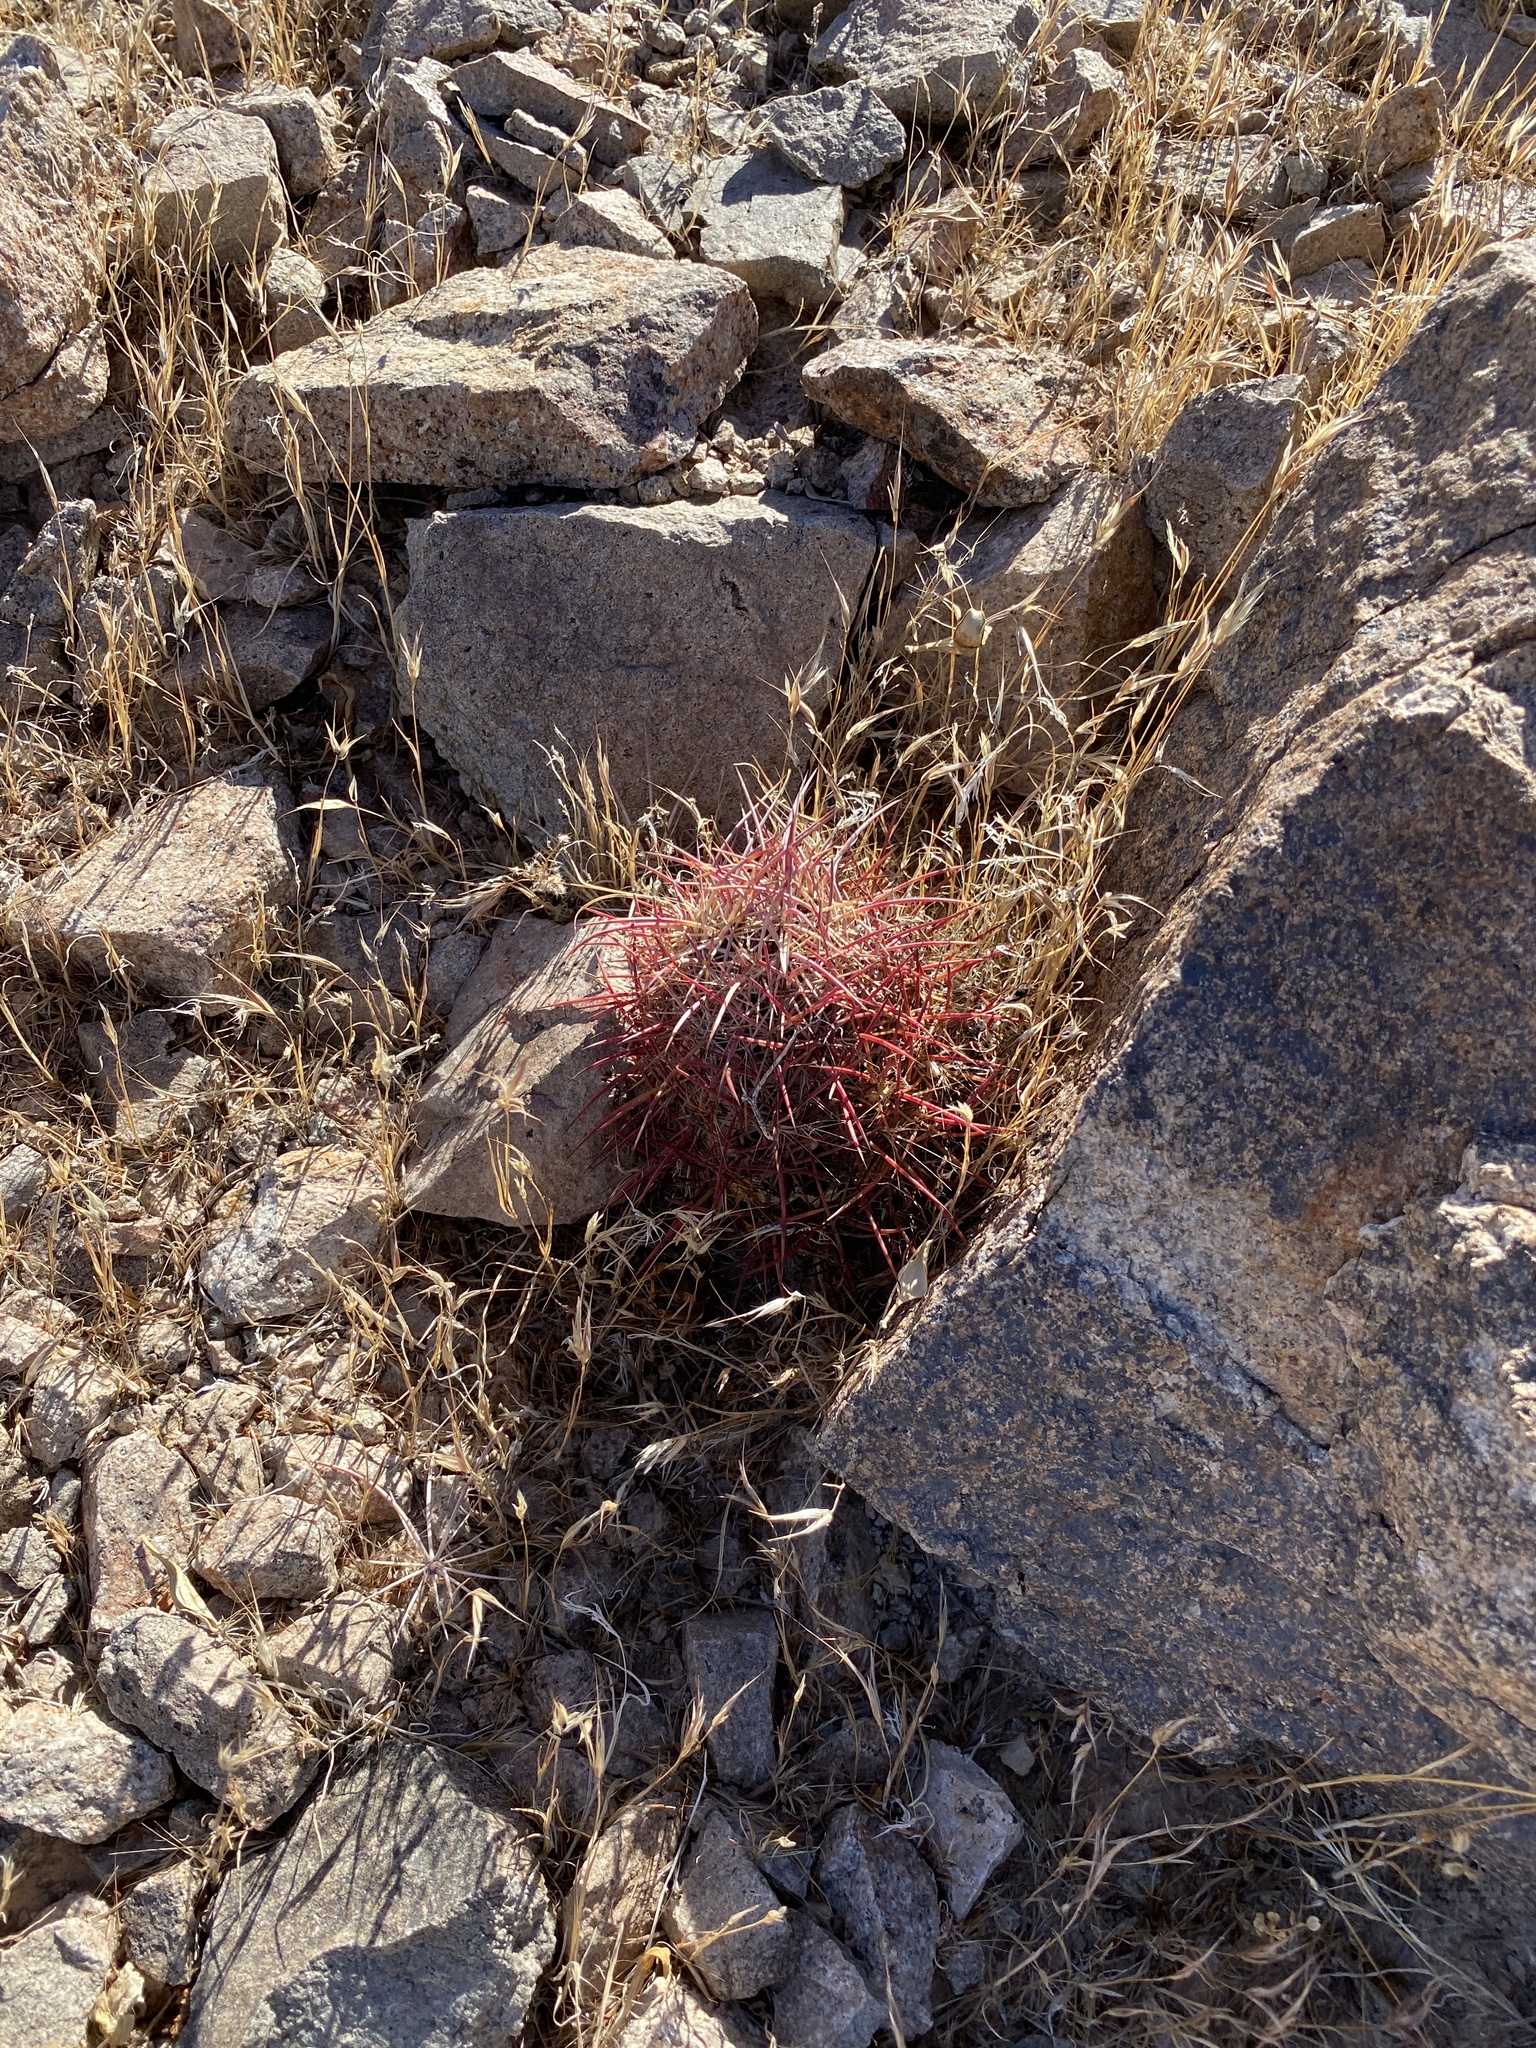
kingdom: Plantae
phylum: Tracheophyta
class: Magnoliopsida
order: Caryophyllales
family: Cactaceae
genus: Sclerocactus
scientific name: Sclerocactus johnsonii
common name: Eight-spine fishhook cactus
